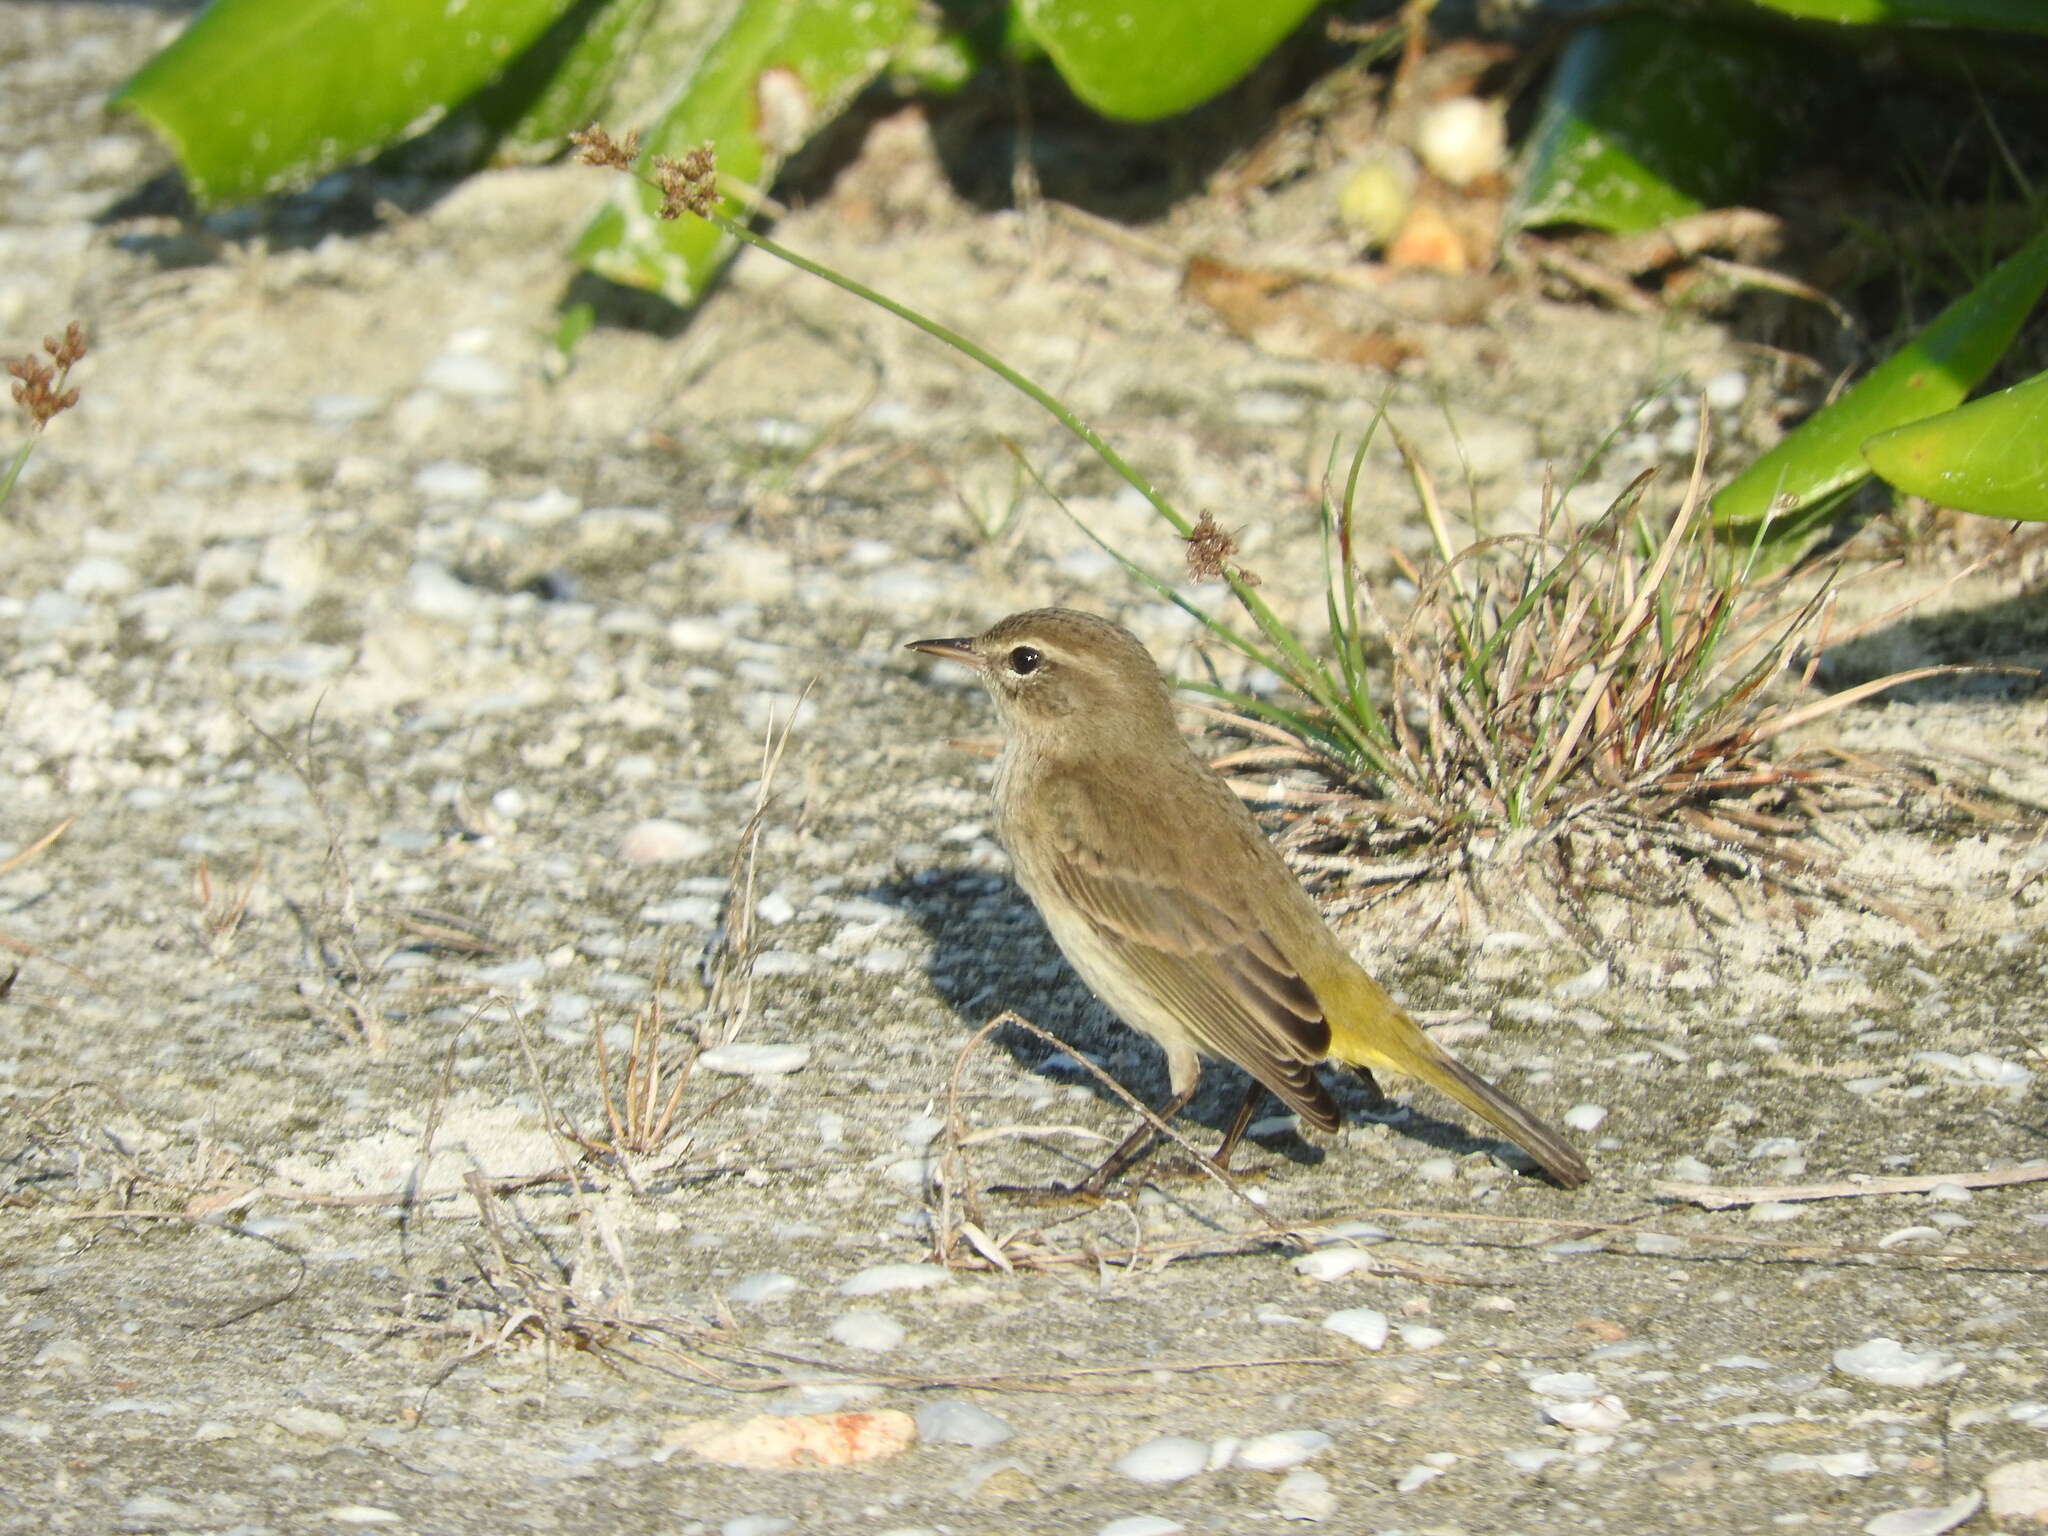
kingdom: Animalia
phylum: Chordata
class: Aves
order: Passeriformes
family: Parulidae
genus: Setophaga
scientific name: Setophaga palmarum
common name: Palm warbler
